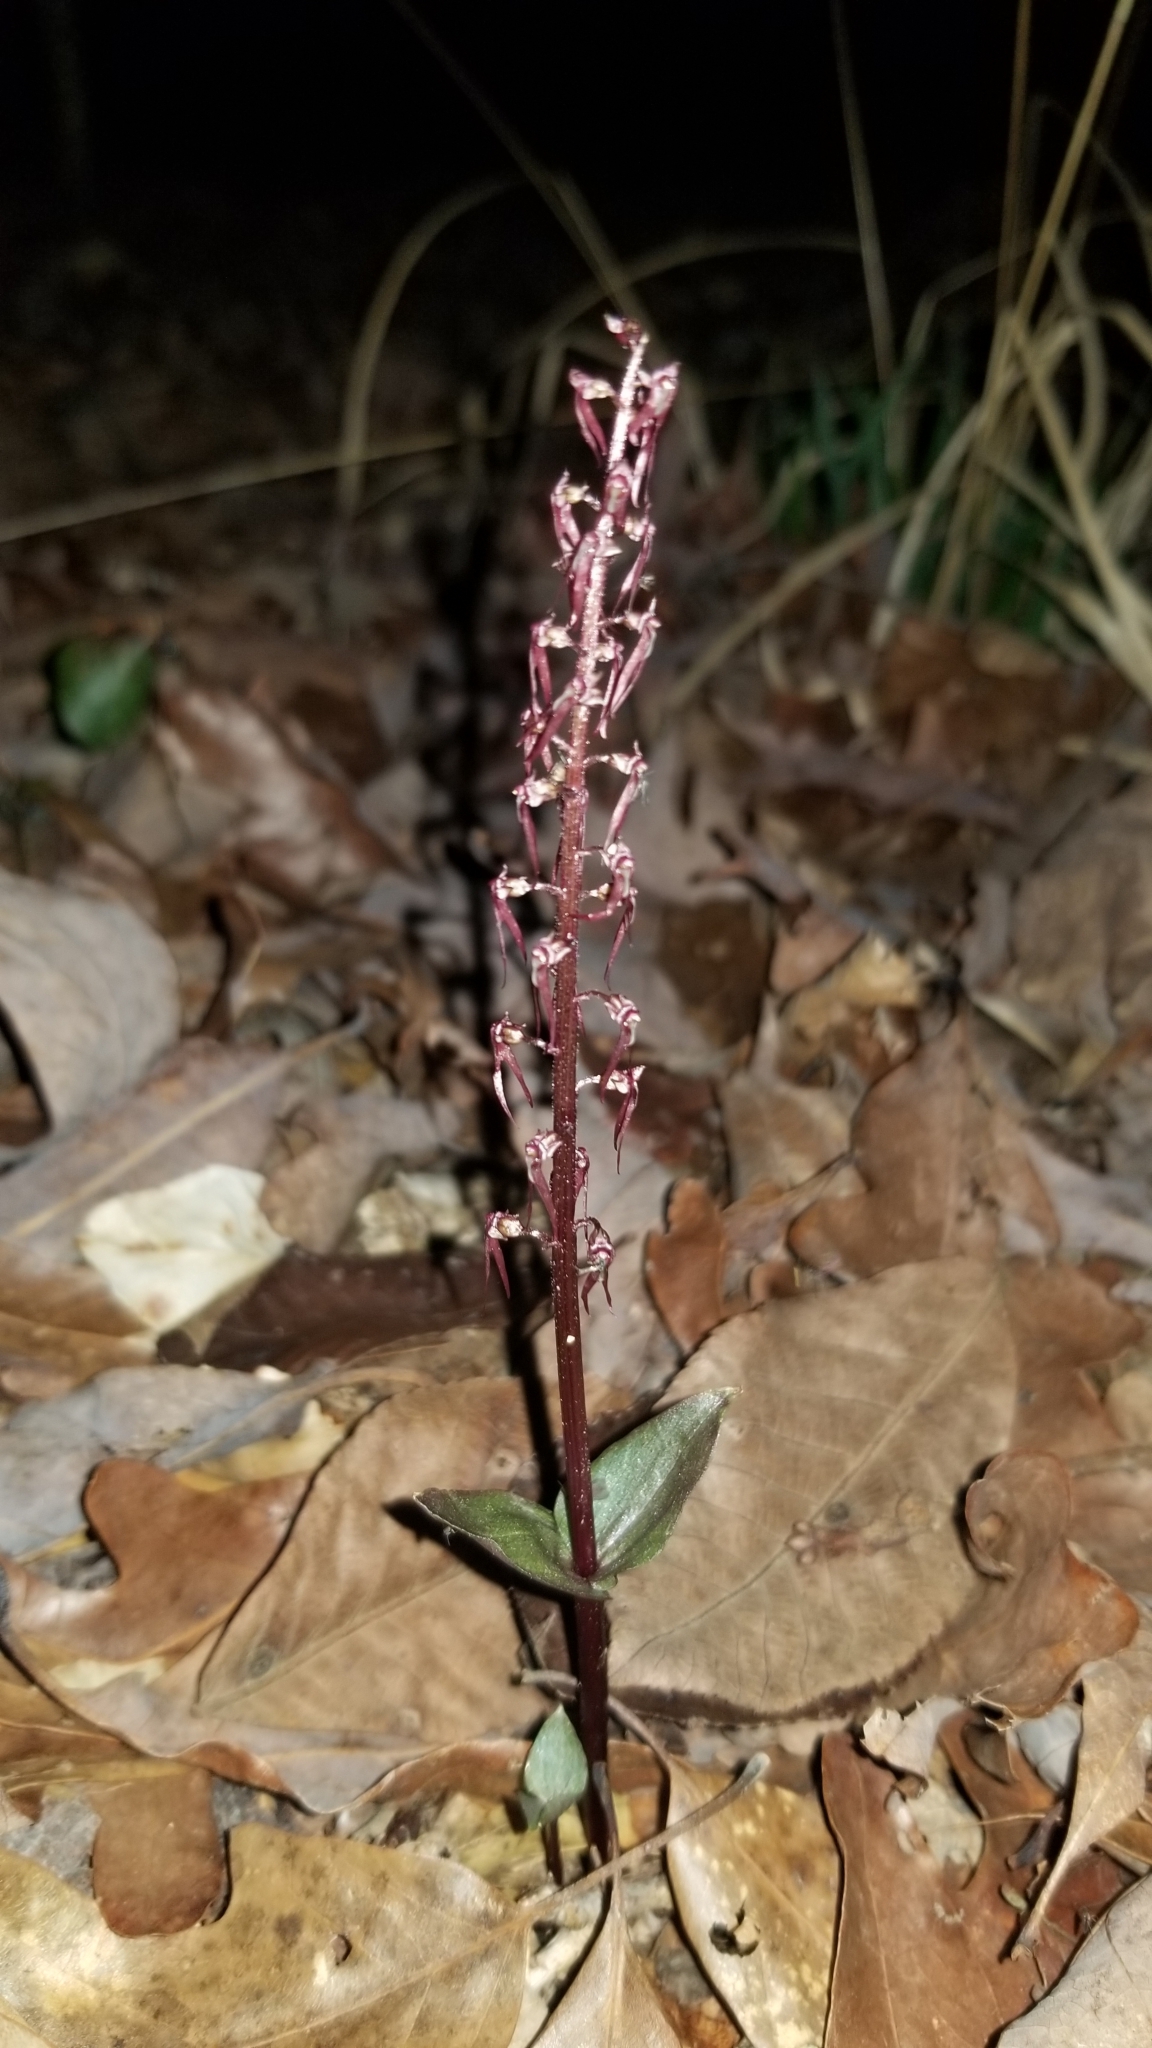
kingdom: Plantae
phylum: Tracheophyta
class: Liliopsida
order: Asparagales
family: Orchidaceae
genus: Neottia
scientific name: Neottia bifolia
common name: Southern twayblade
